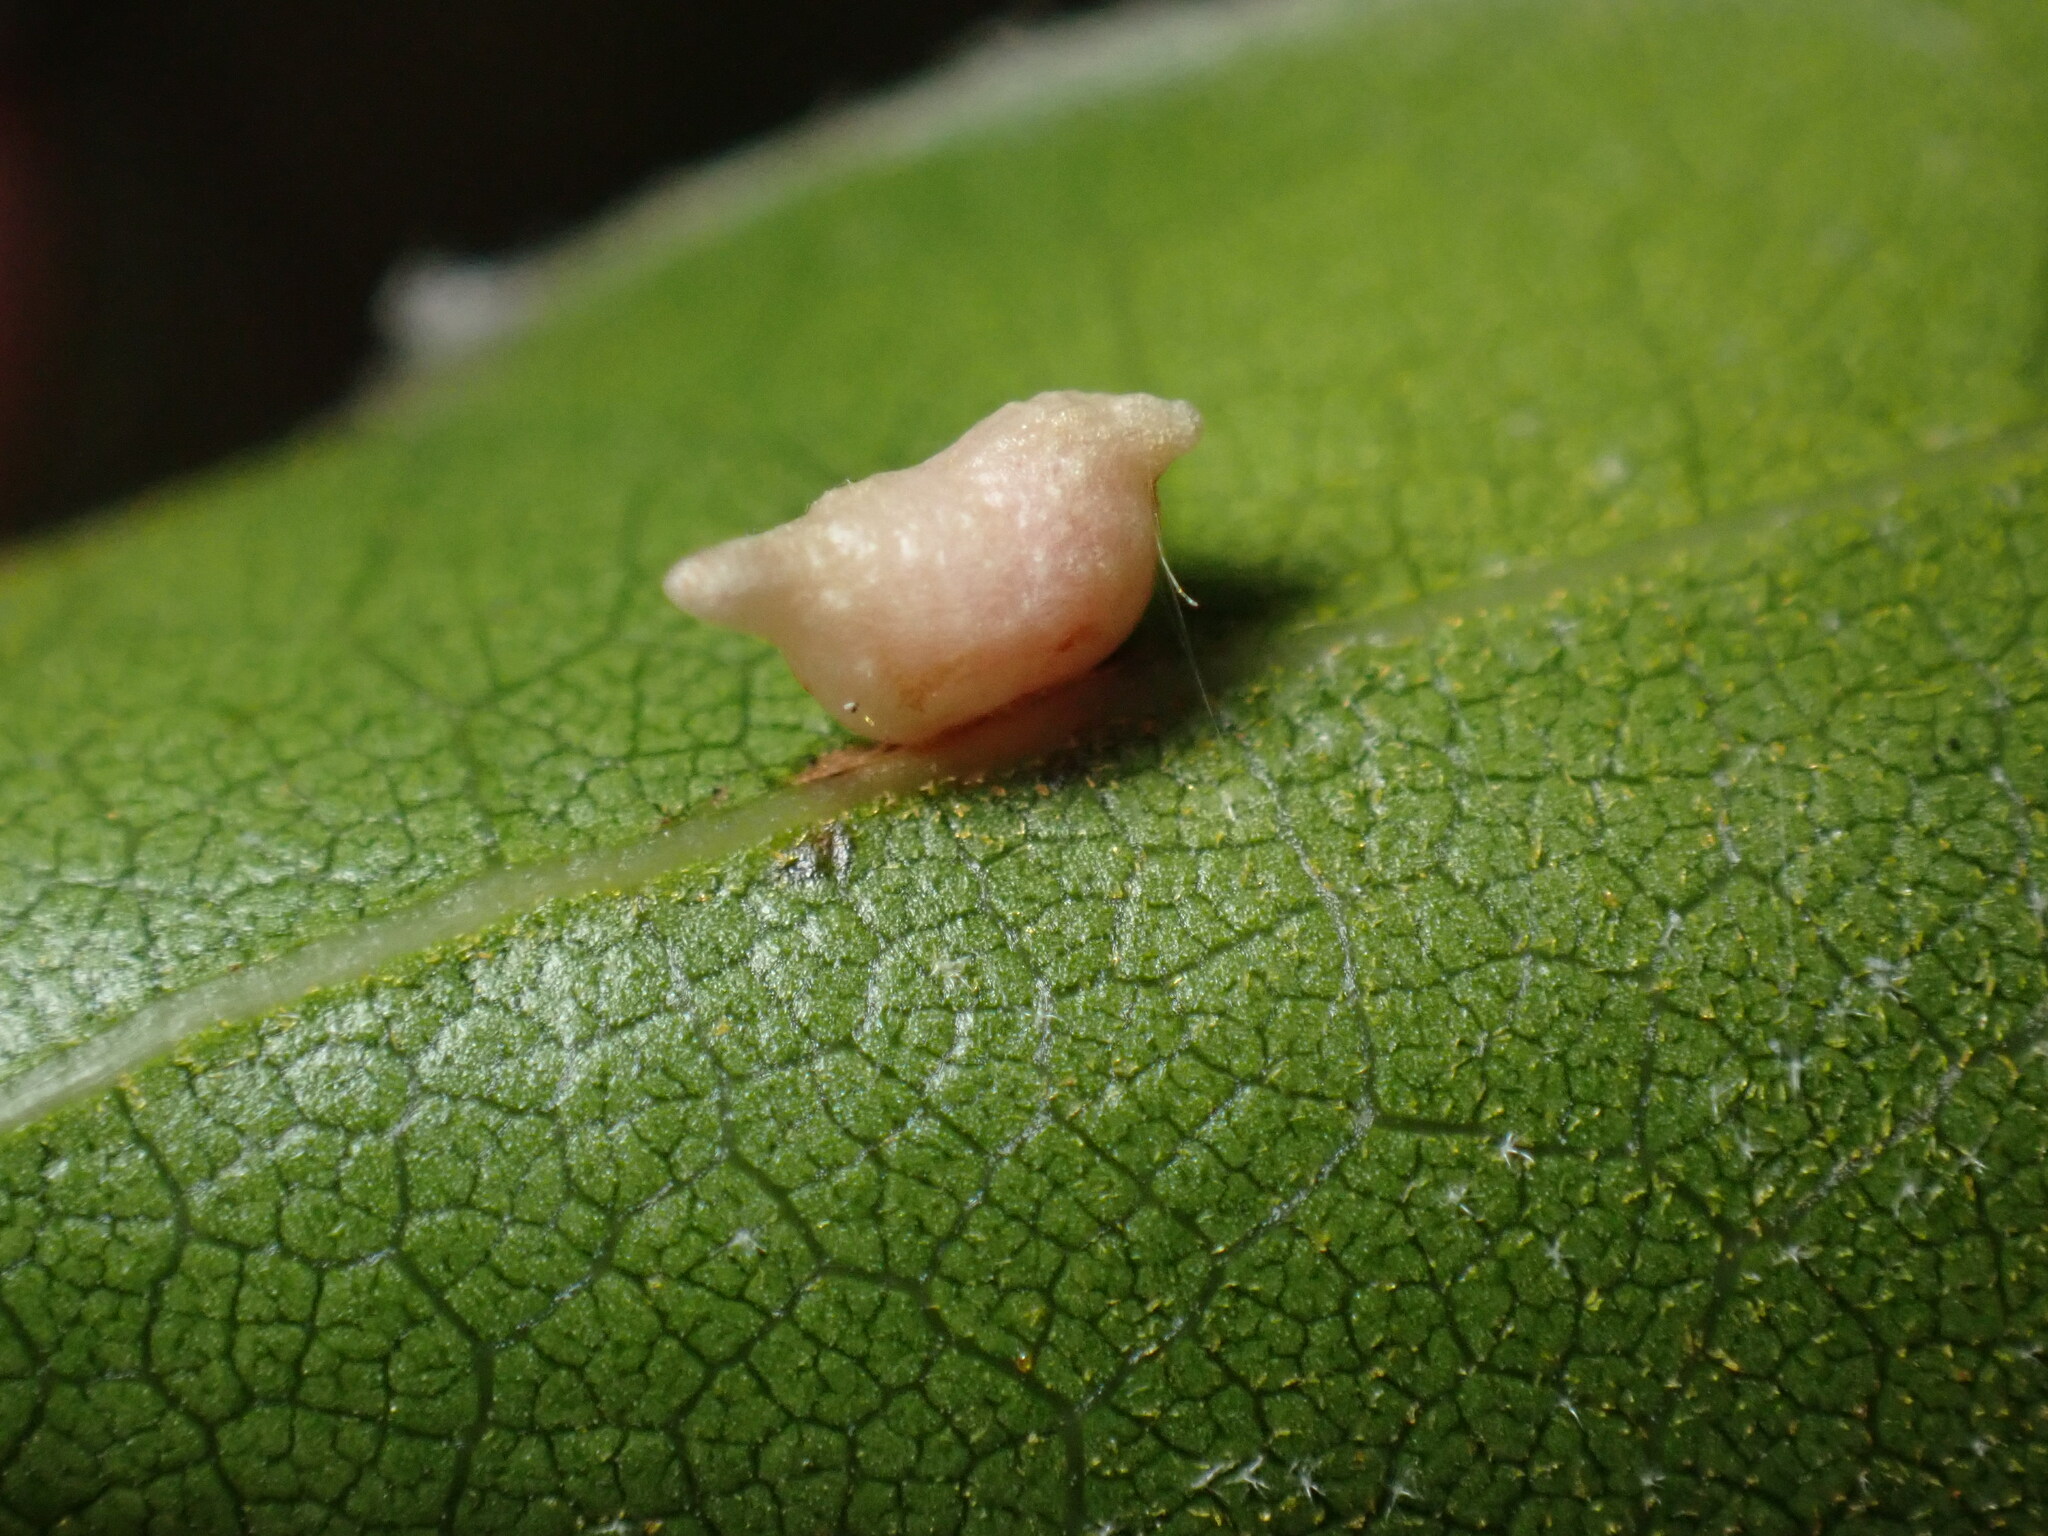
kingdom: Animalia
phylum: Arthropoda
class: Insecta
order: Hymenoptera
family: Cynipidae
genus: Dryocosmus
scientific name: Dryocosmus
